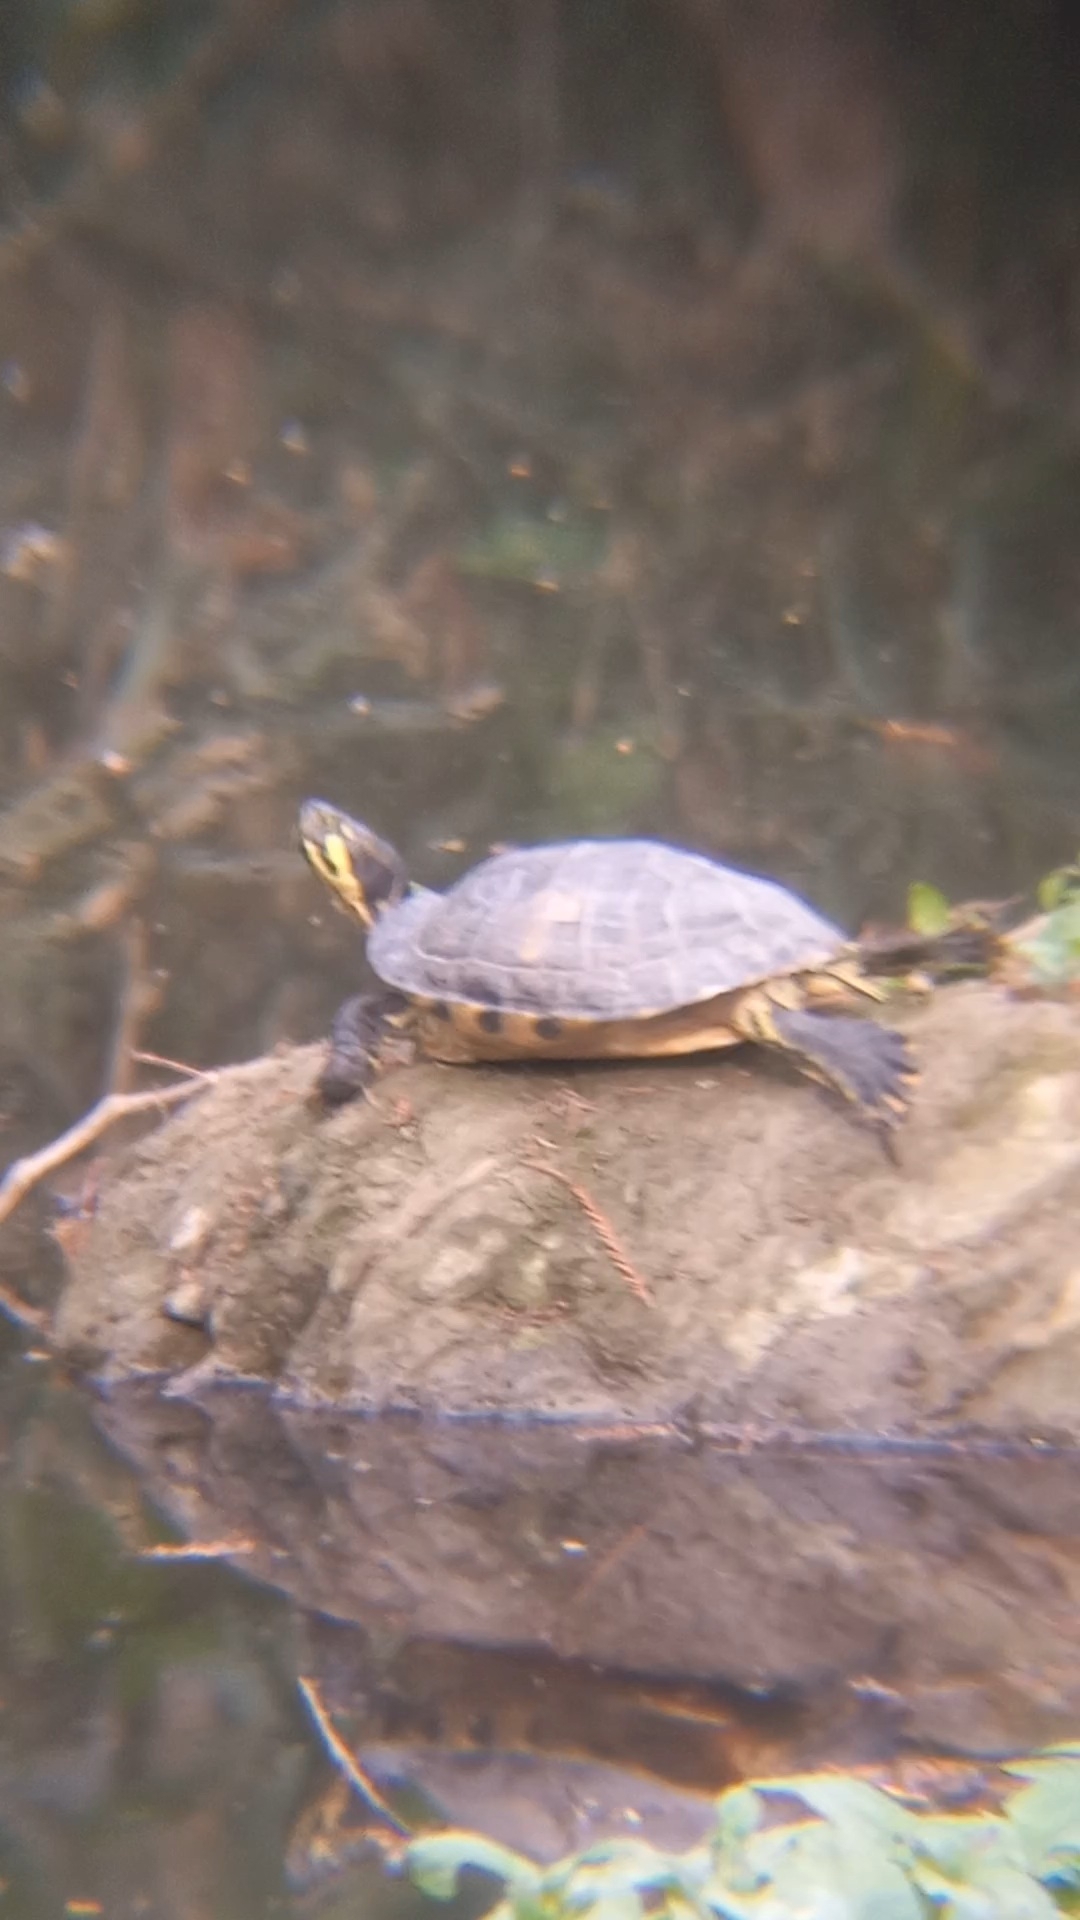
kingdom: Animalia
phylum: Chordata
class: Testudines
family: Emydidae
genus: Trachemys
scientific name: Trachemys scripta
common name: Slider
